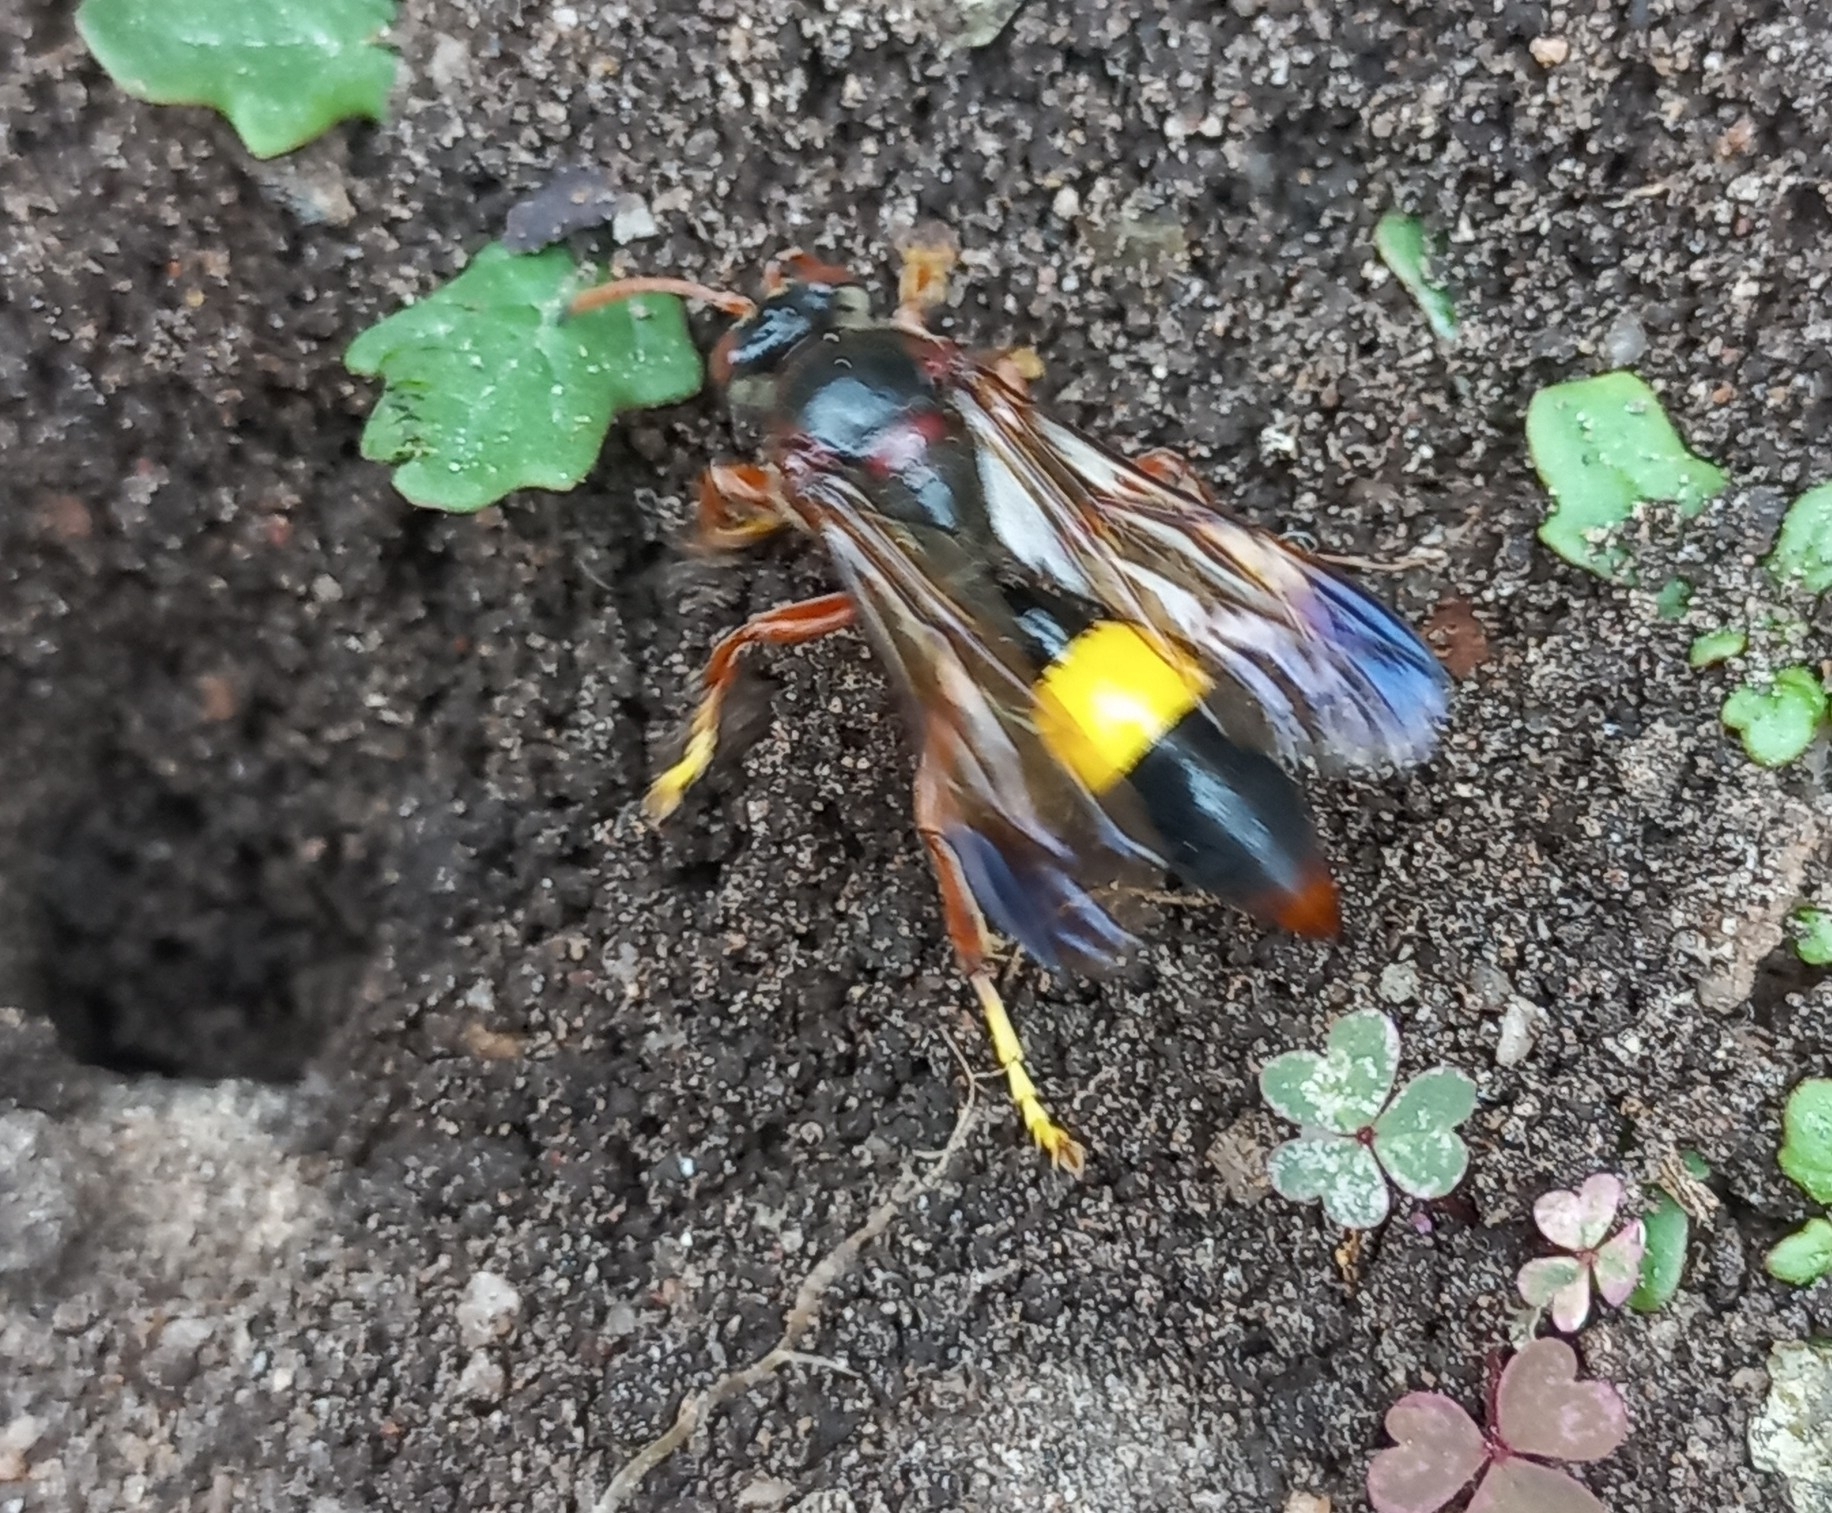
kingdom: Animalia
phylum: Arthropoda
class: Insecta
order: Hymenoptera
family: Crabronidae
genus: Gorytes
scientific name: Gorytes natalensis
